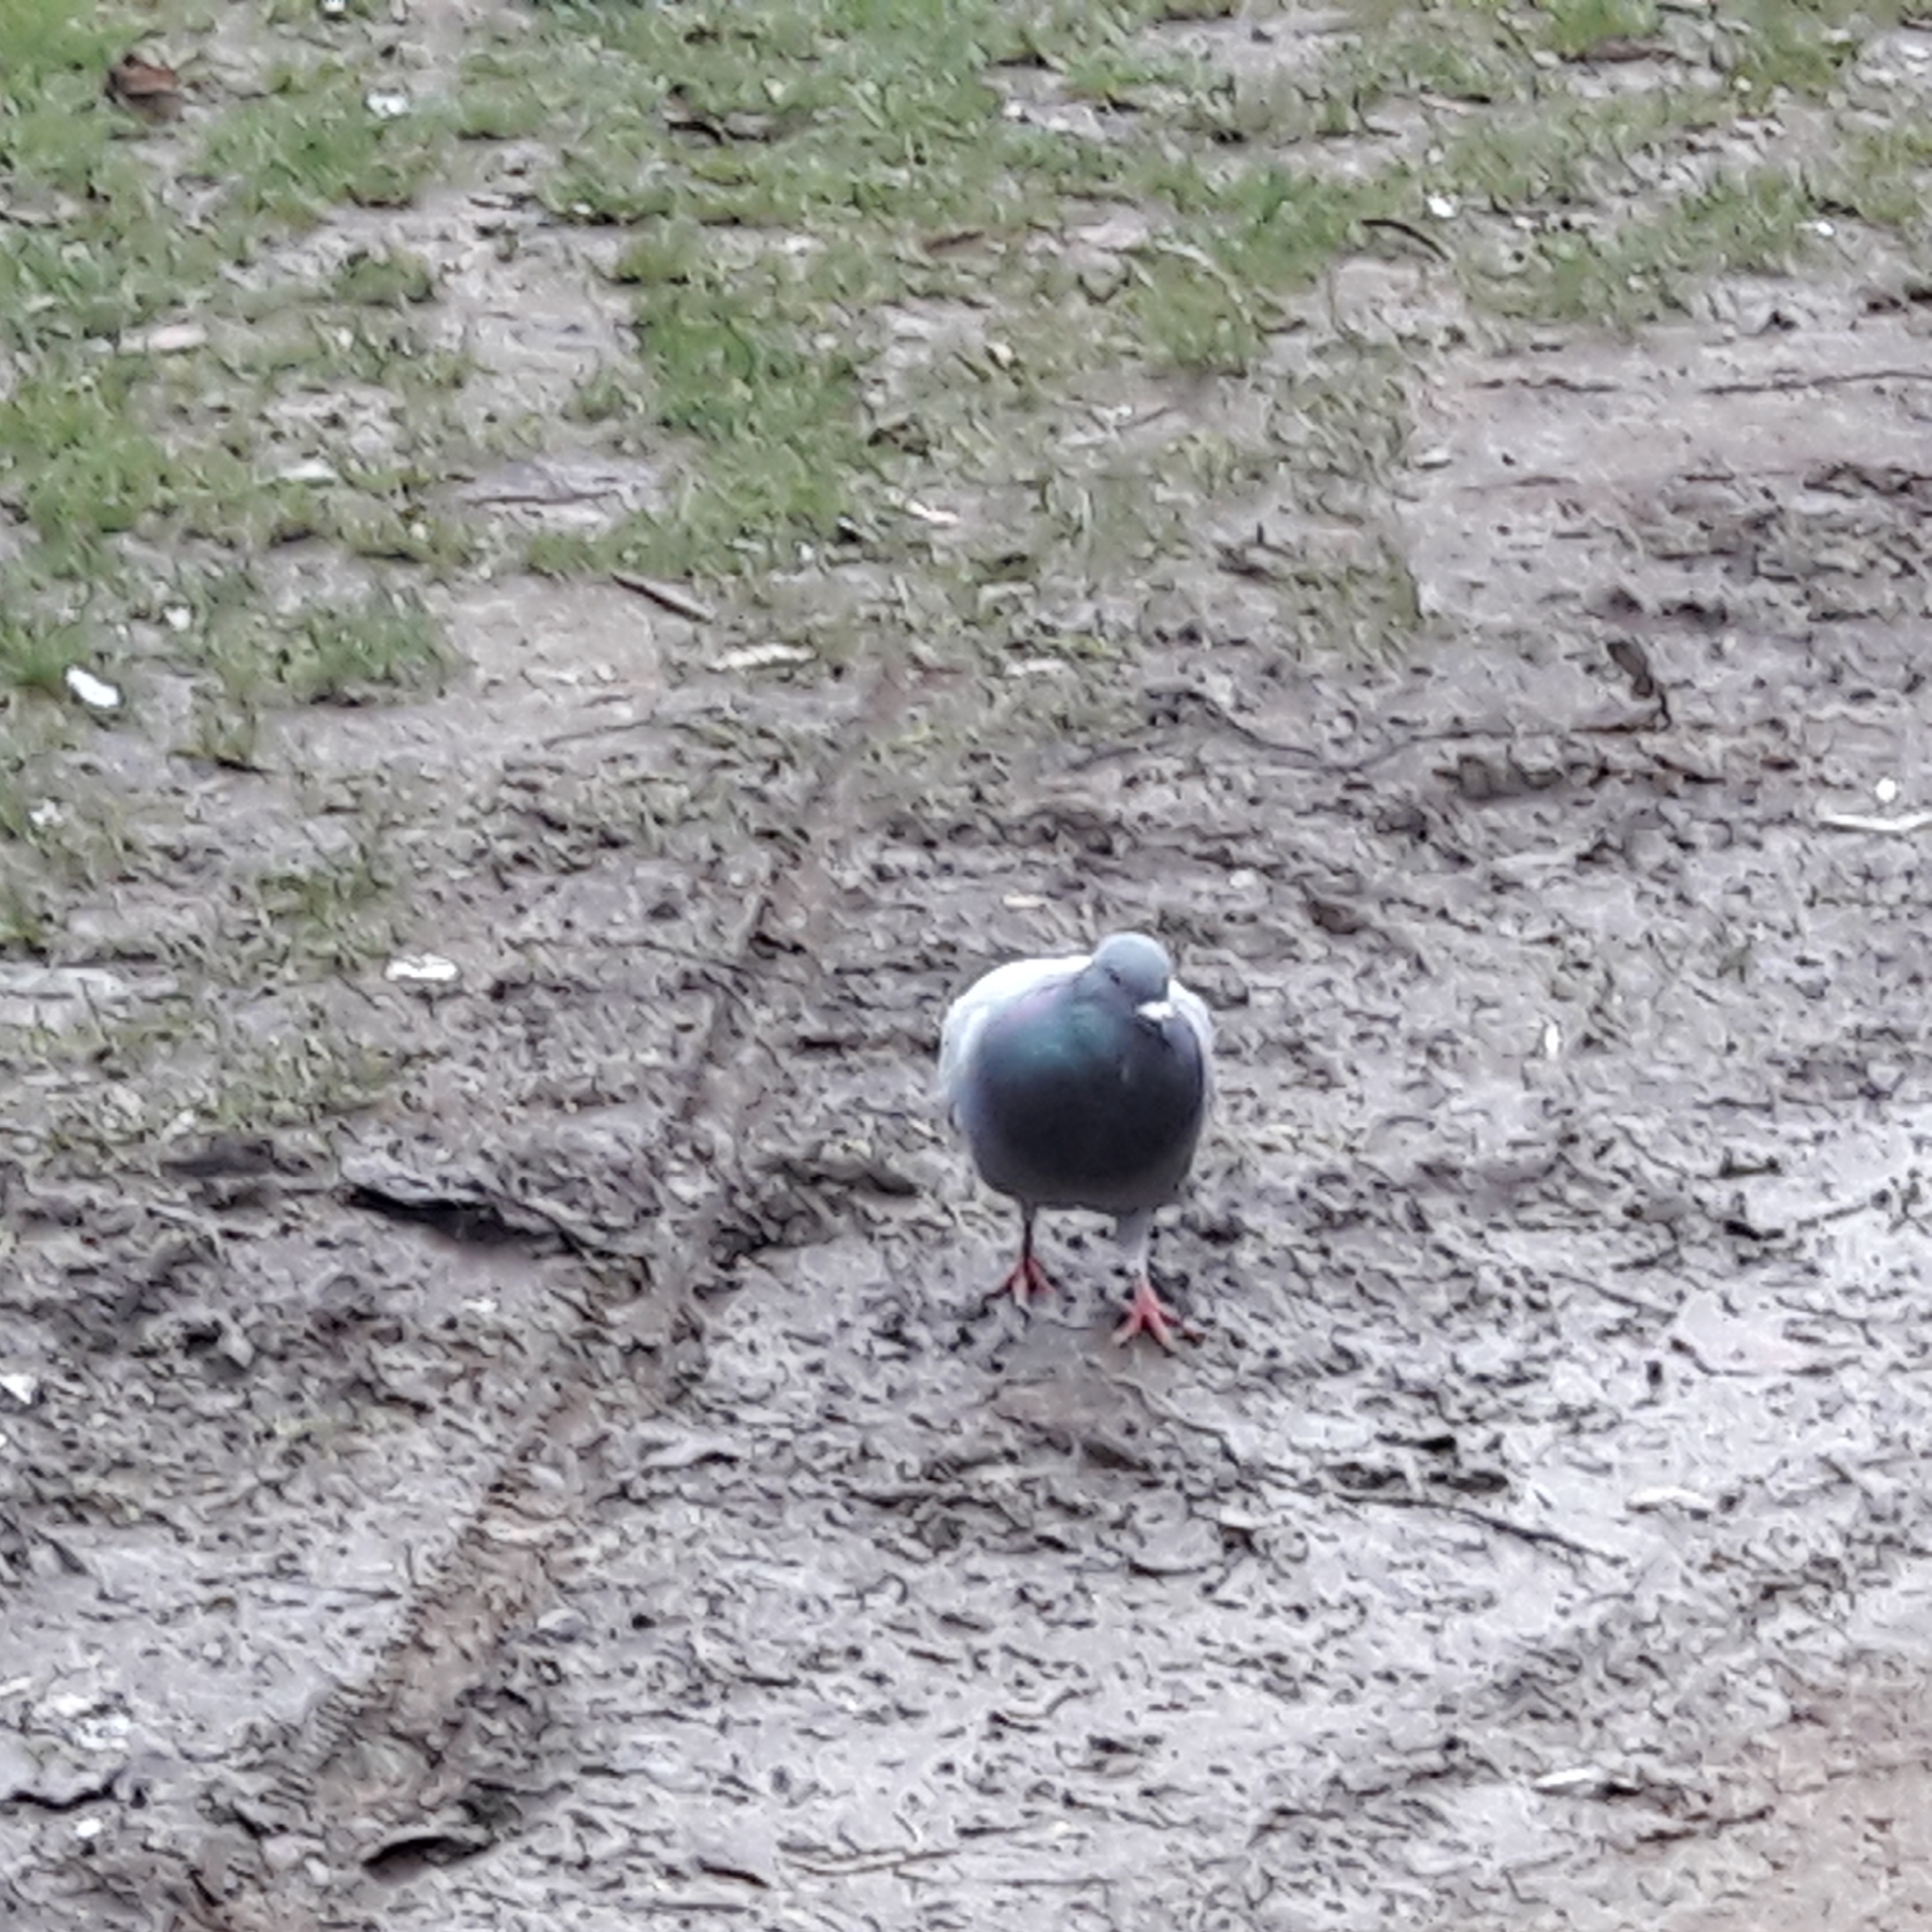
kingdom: Animalia
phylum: Chordata
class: Aves
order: Columbiformes
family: Columbidae
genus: Columba
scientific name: Columba livia
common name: Rock pigeon
